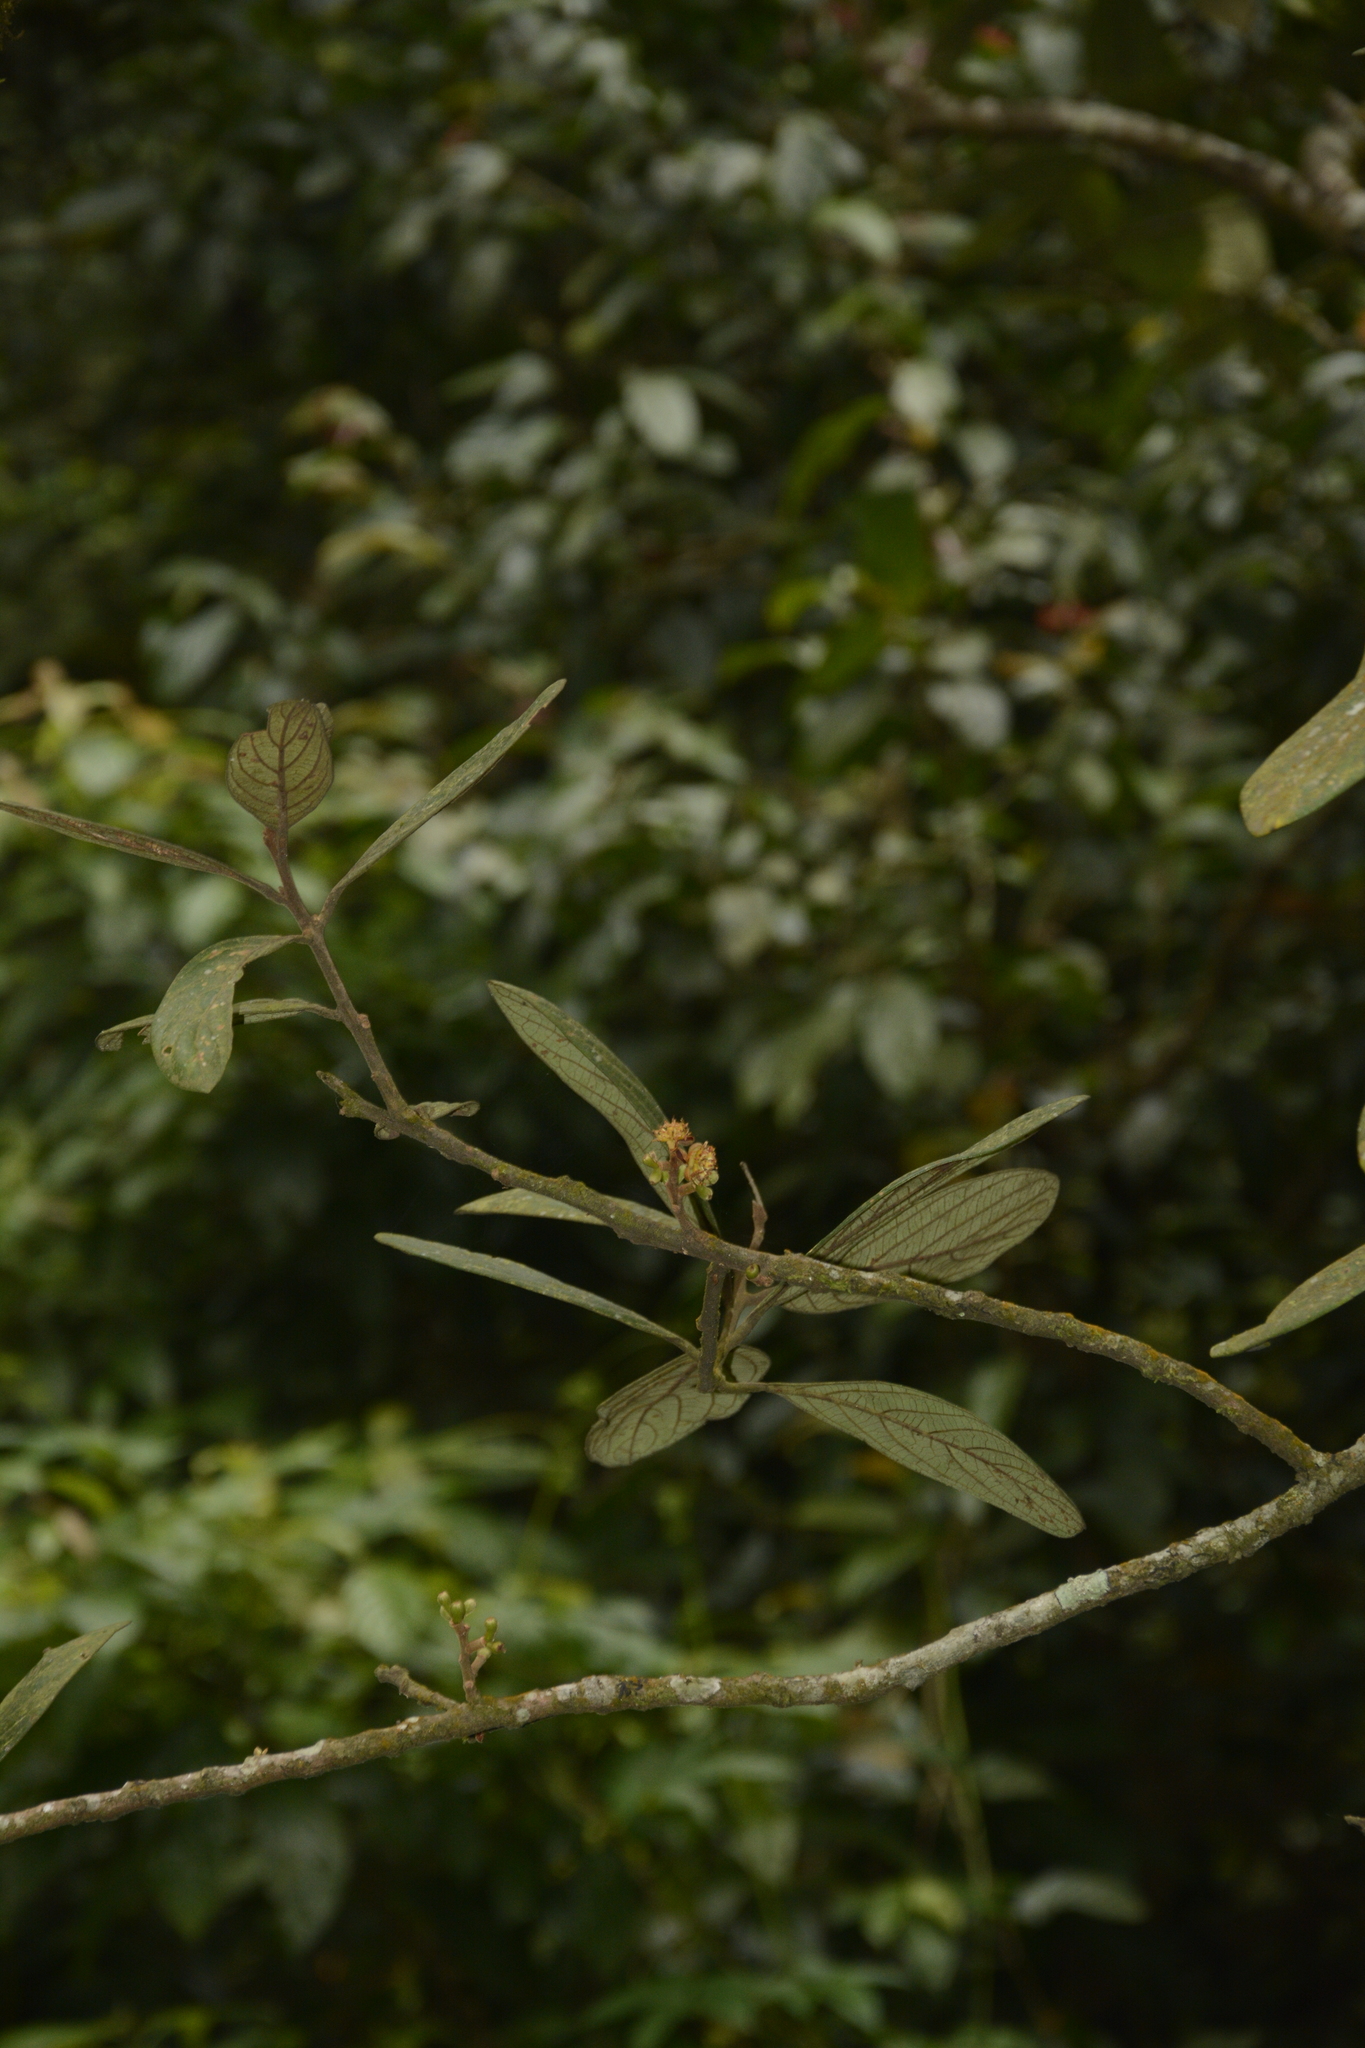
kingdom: Plantae
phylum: Tracheophyta
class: Magnoliopsida
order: Laurales
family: Lauraceae
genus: Litsea
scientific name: Litsea wightiana
